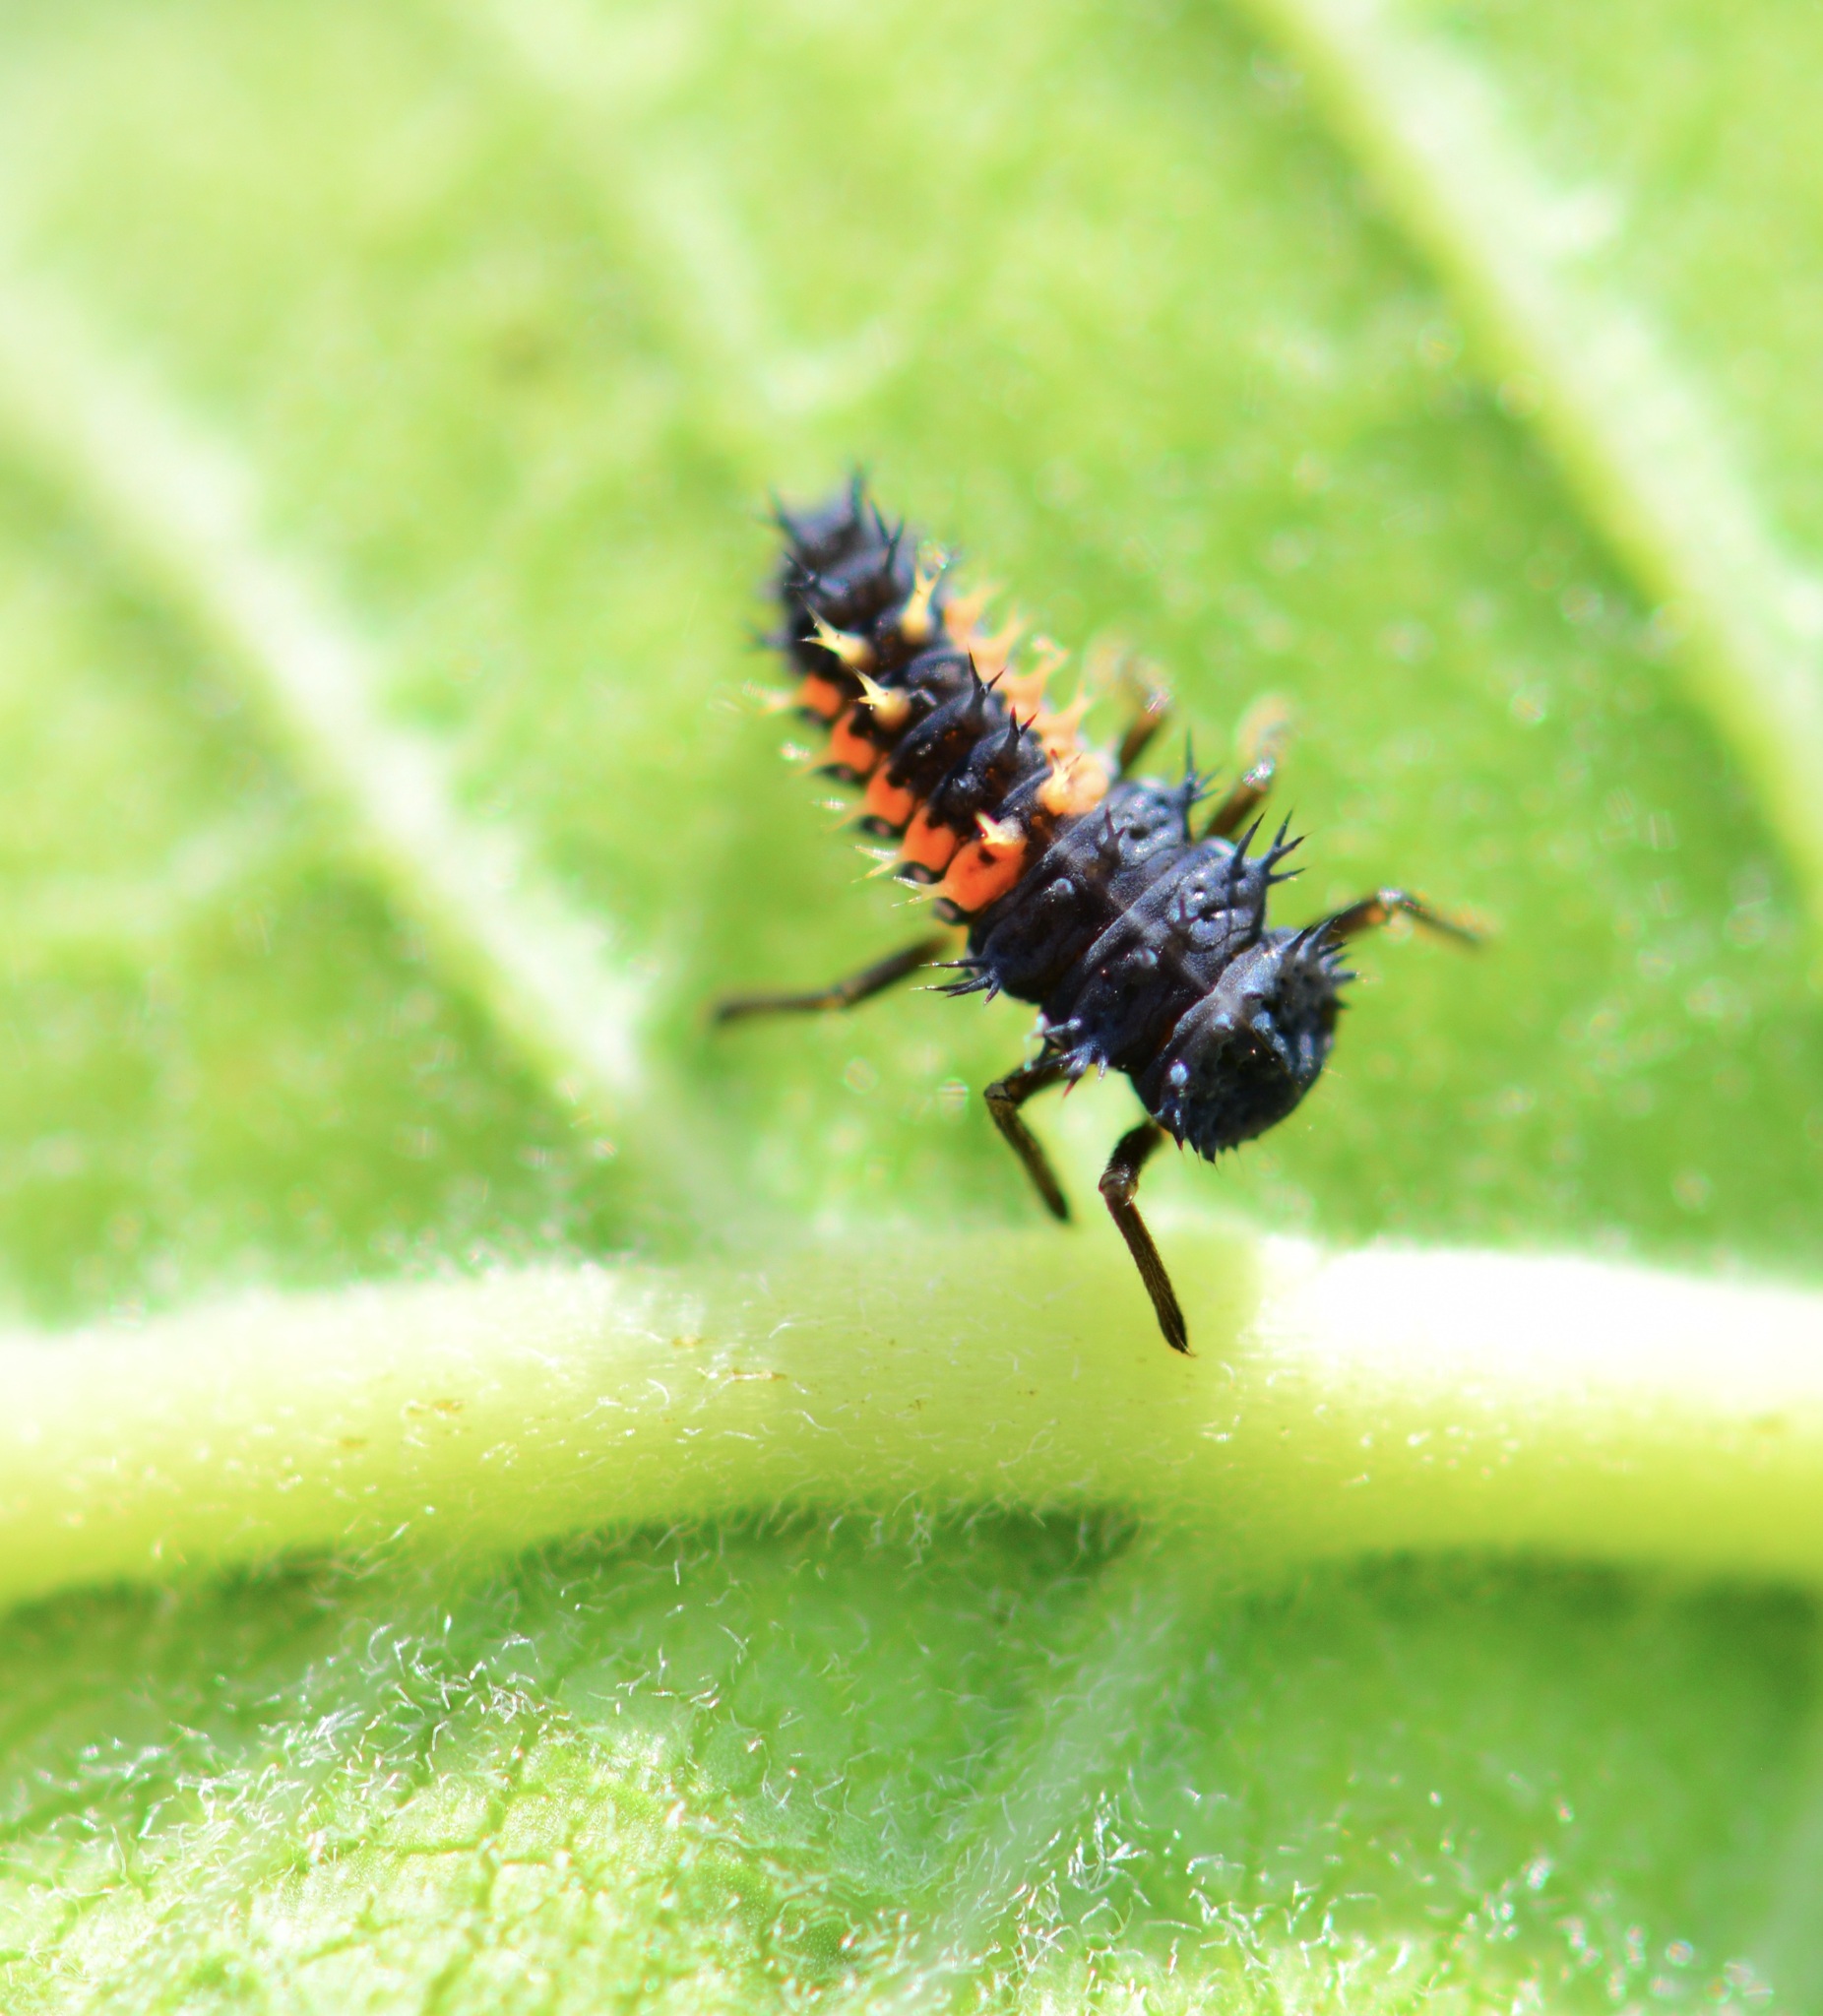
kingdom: Animalia
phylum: Arthropoda
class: Insecta
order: Coleoptera
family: Coccinellidae
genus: Harmonia
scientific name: Harmonia axyridis
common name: Harlequin ladybird
